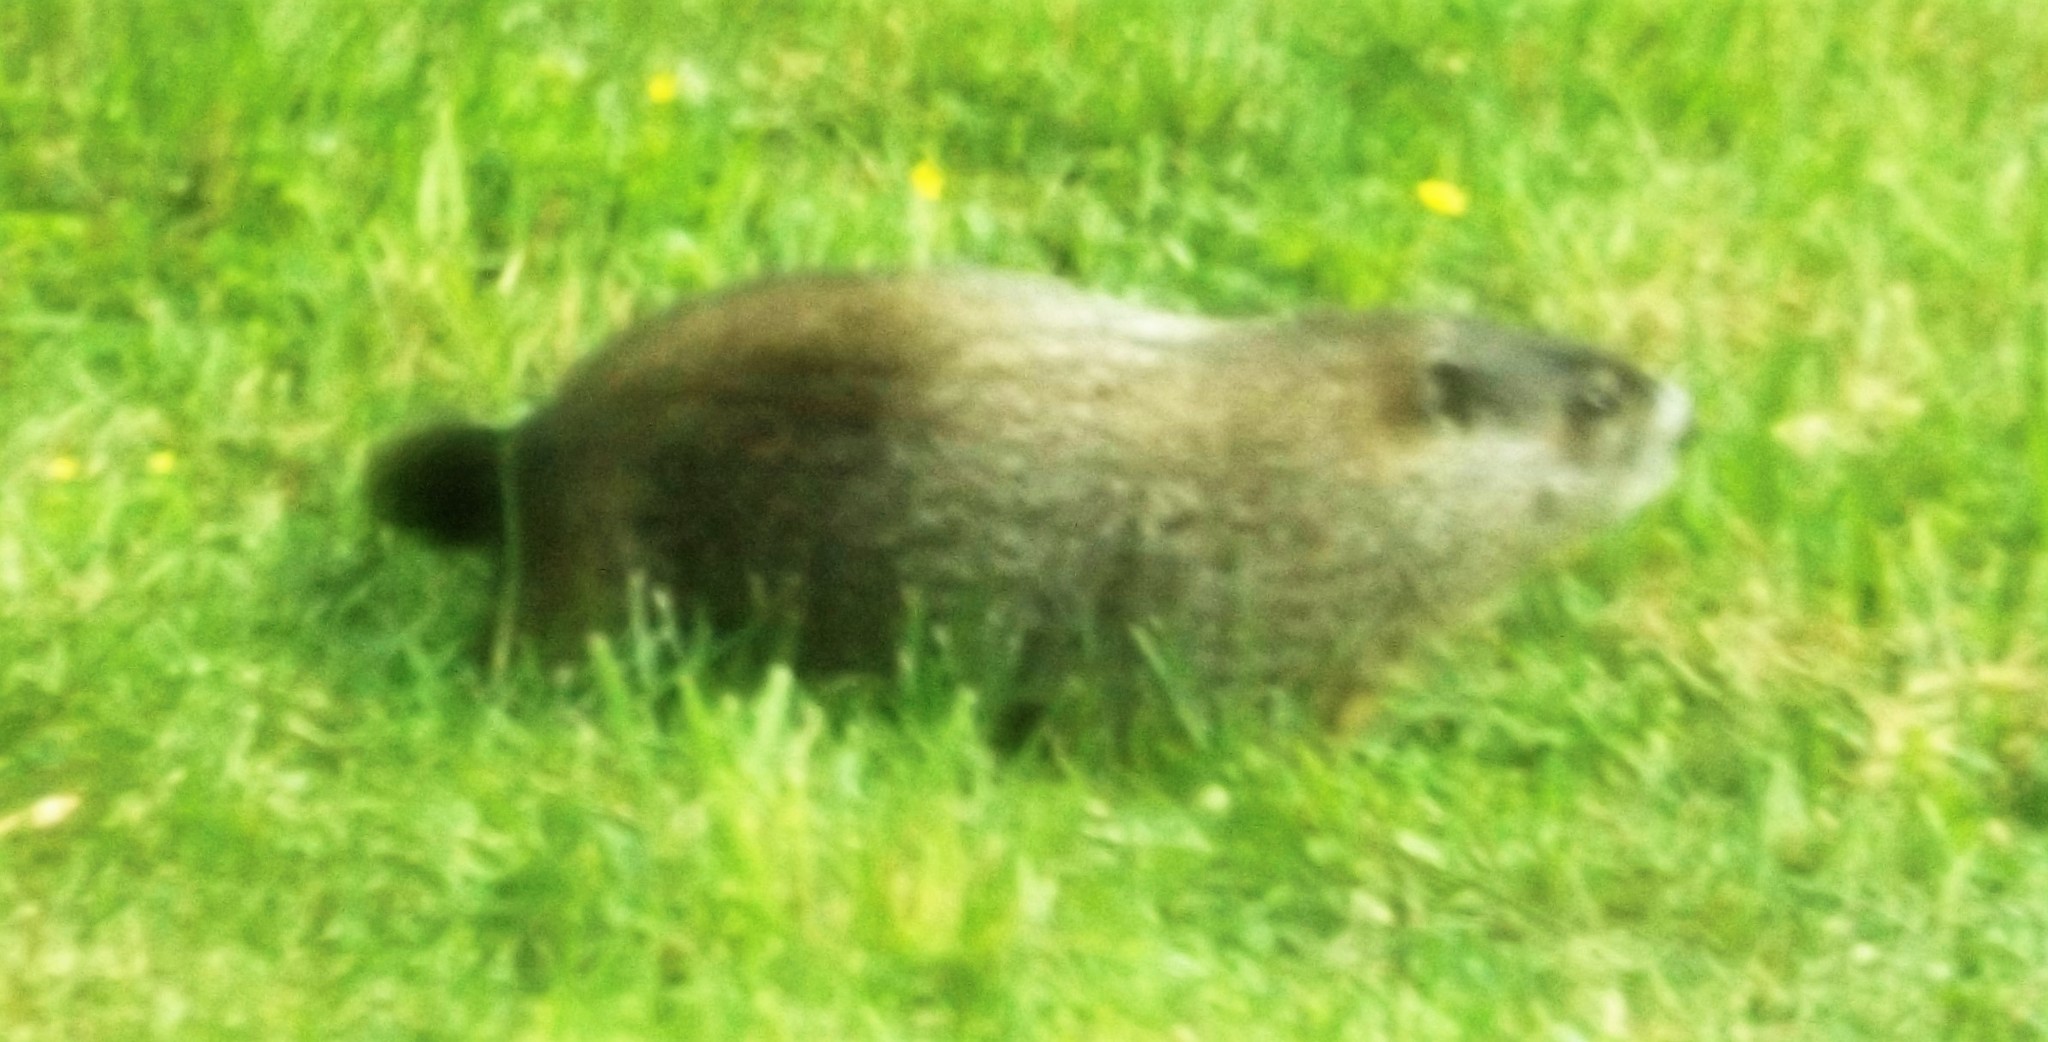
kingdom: Animalia
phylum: Chordata
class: Mammalia
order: Rodentia
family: Sciuridae
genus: Marmota
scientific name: Marmota monax
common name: Groundhog
